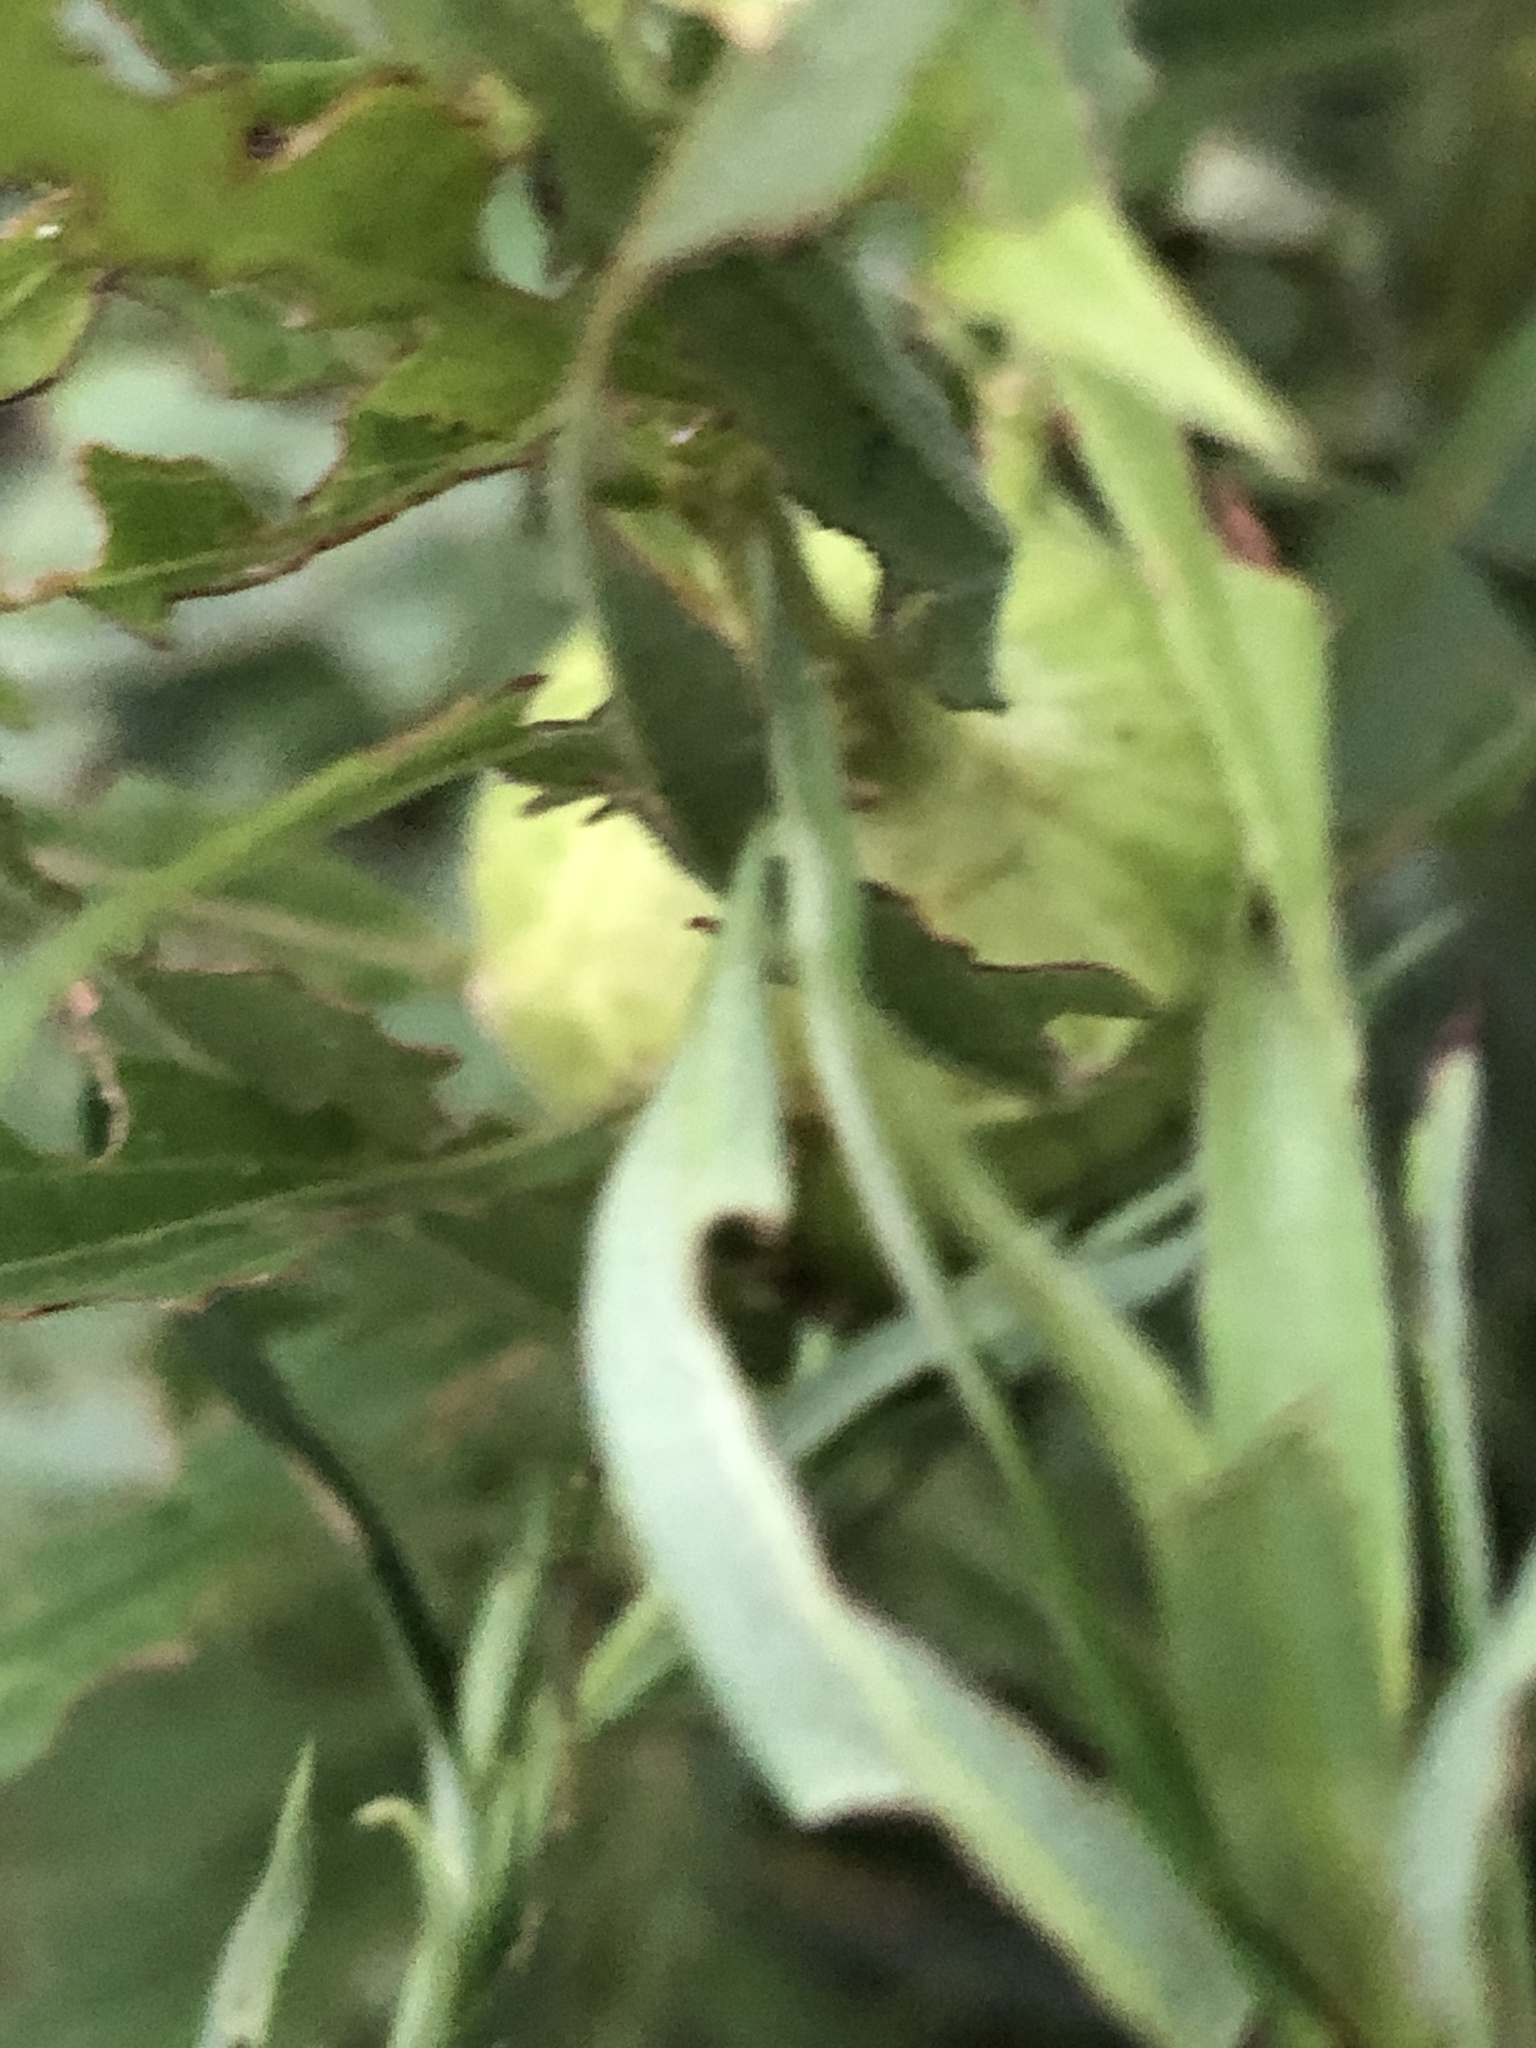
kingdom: Animalia
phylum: Arthropoda
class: Insecta
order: Diptera
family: Tephritidae
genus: Eurosta
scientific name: Eurosta solidaginis
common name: Goldenrod gall fly
